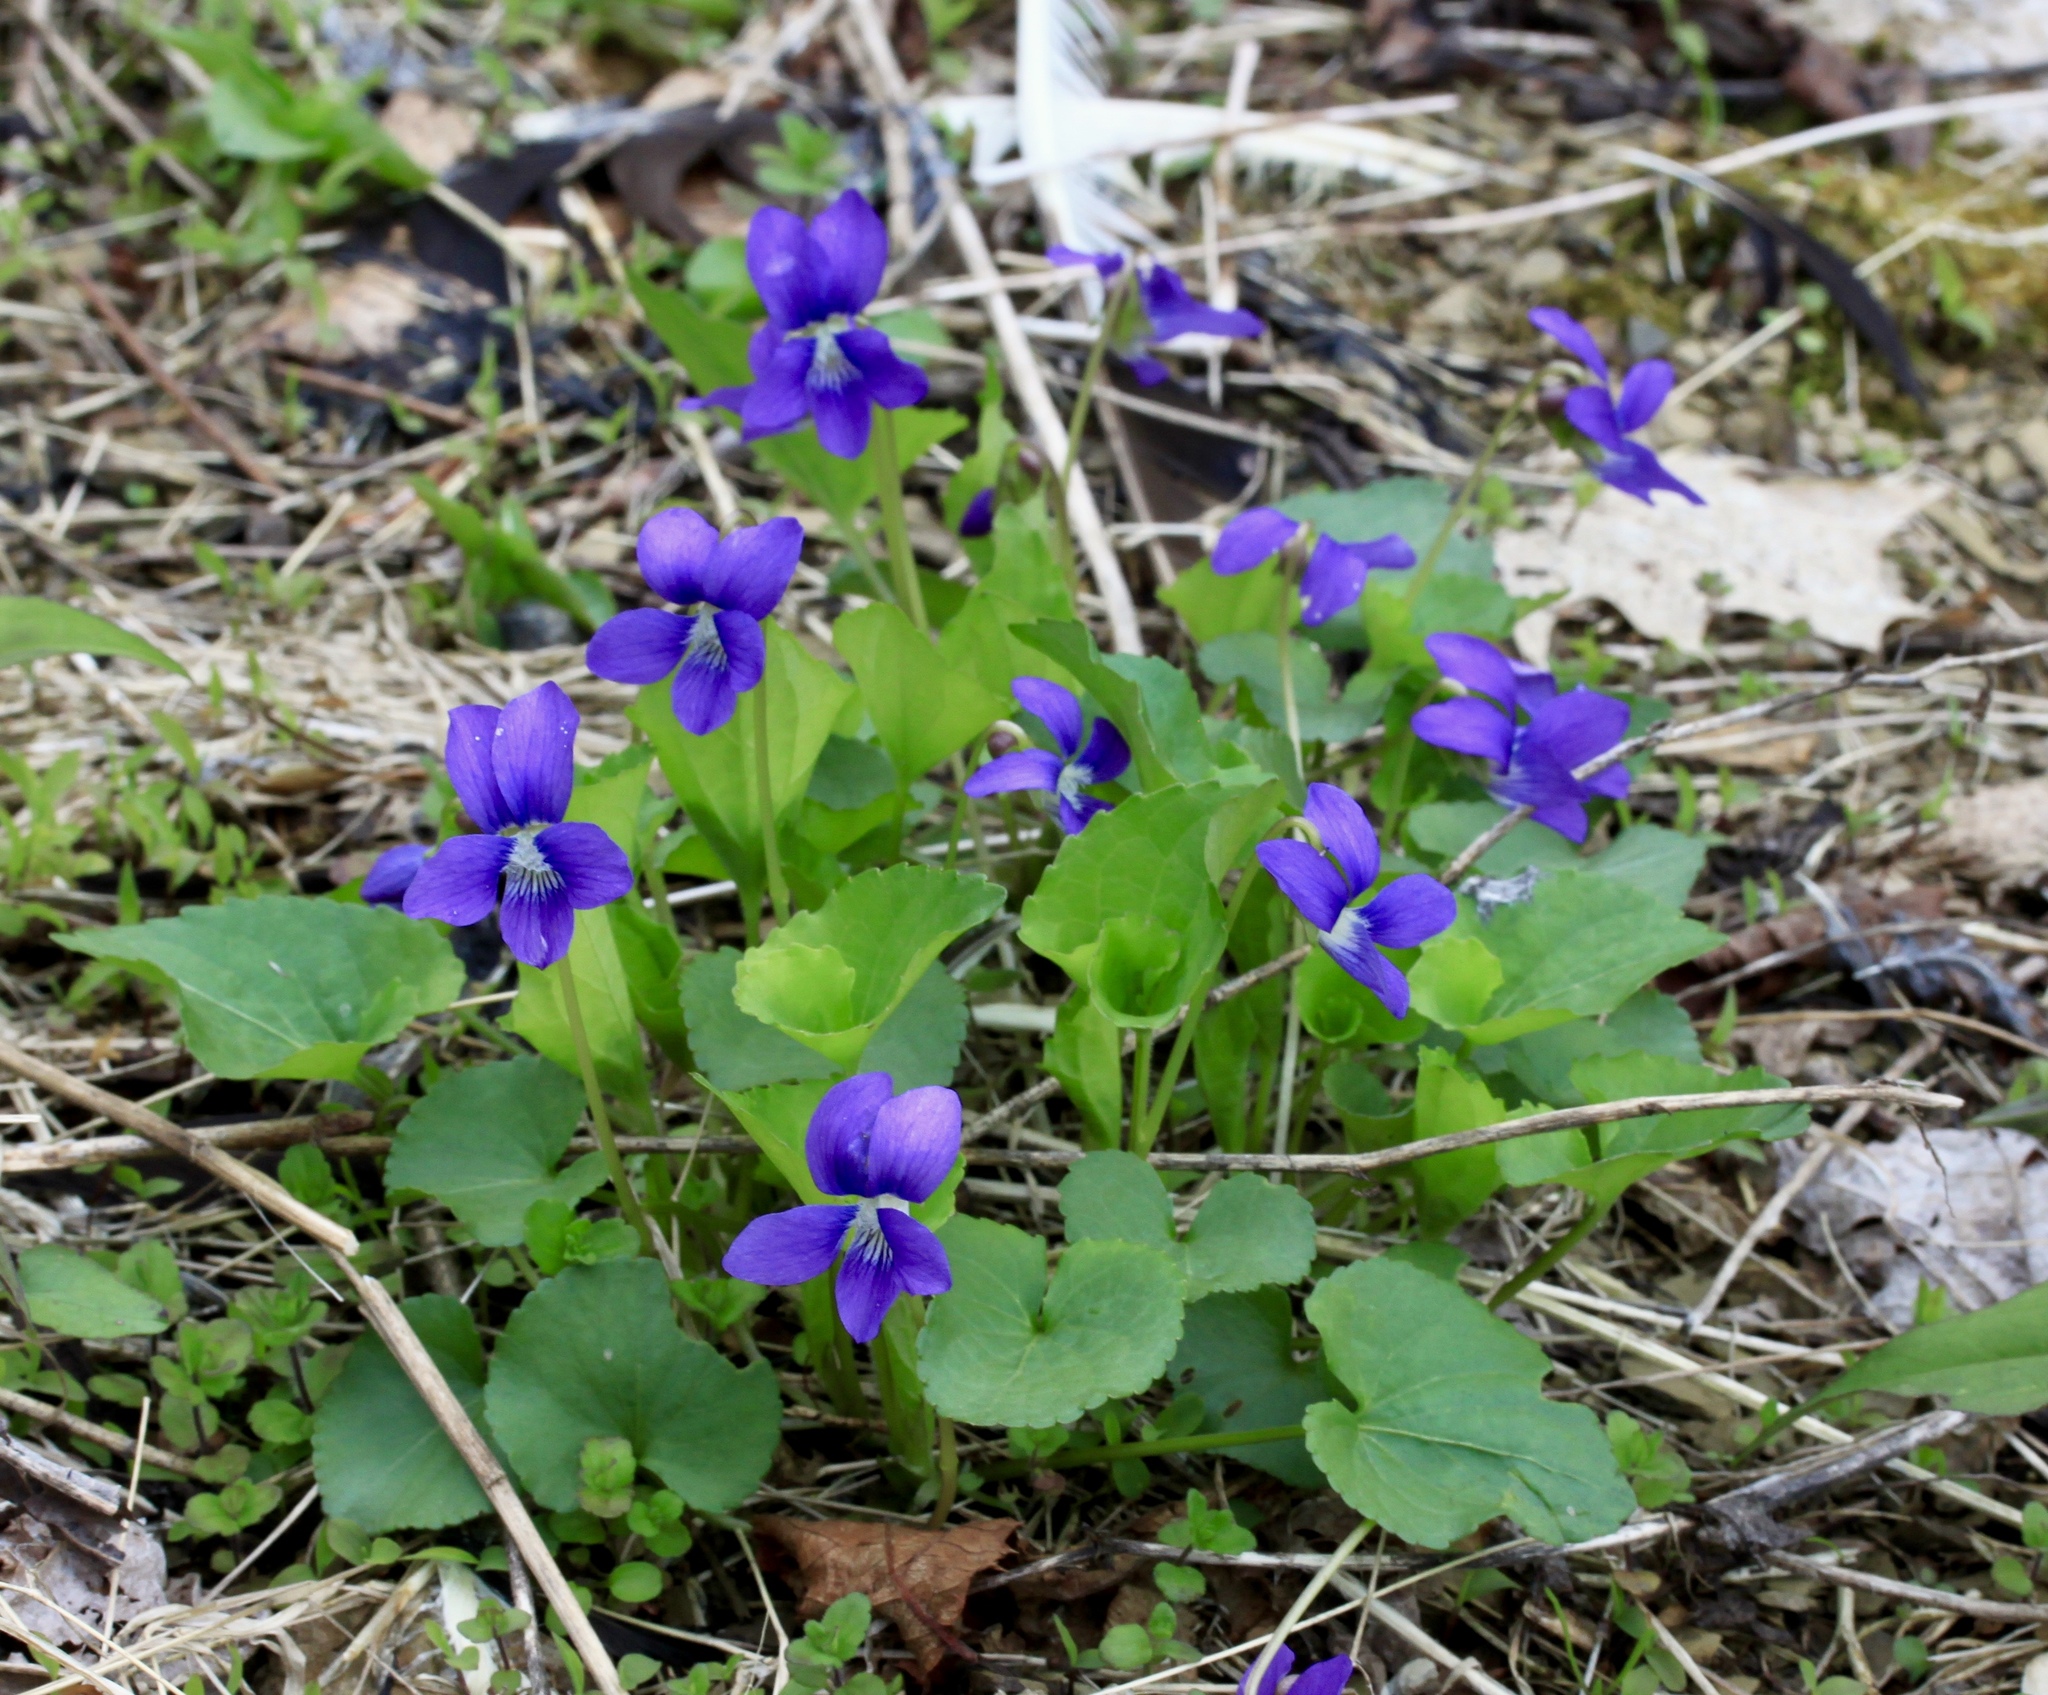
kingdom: Plantae
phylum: Tracheophyta
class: Magnoliopsida
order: Malpighiales
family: Violaceae
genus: Viola
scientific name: Viola sororia
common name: Dooryard violet
